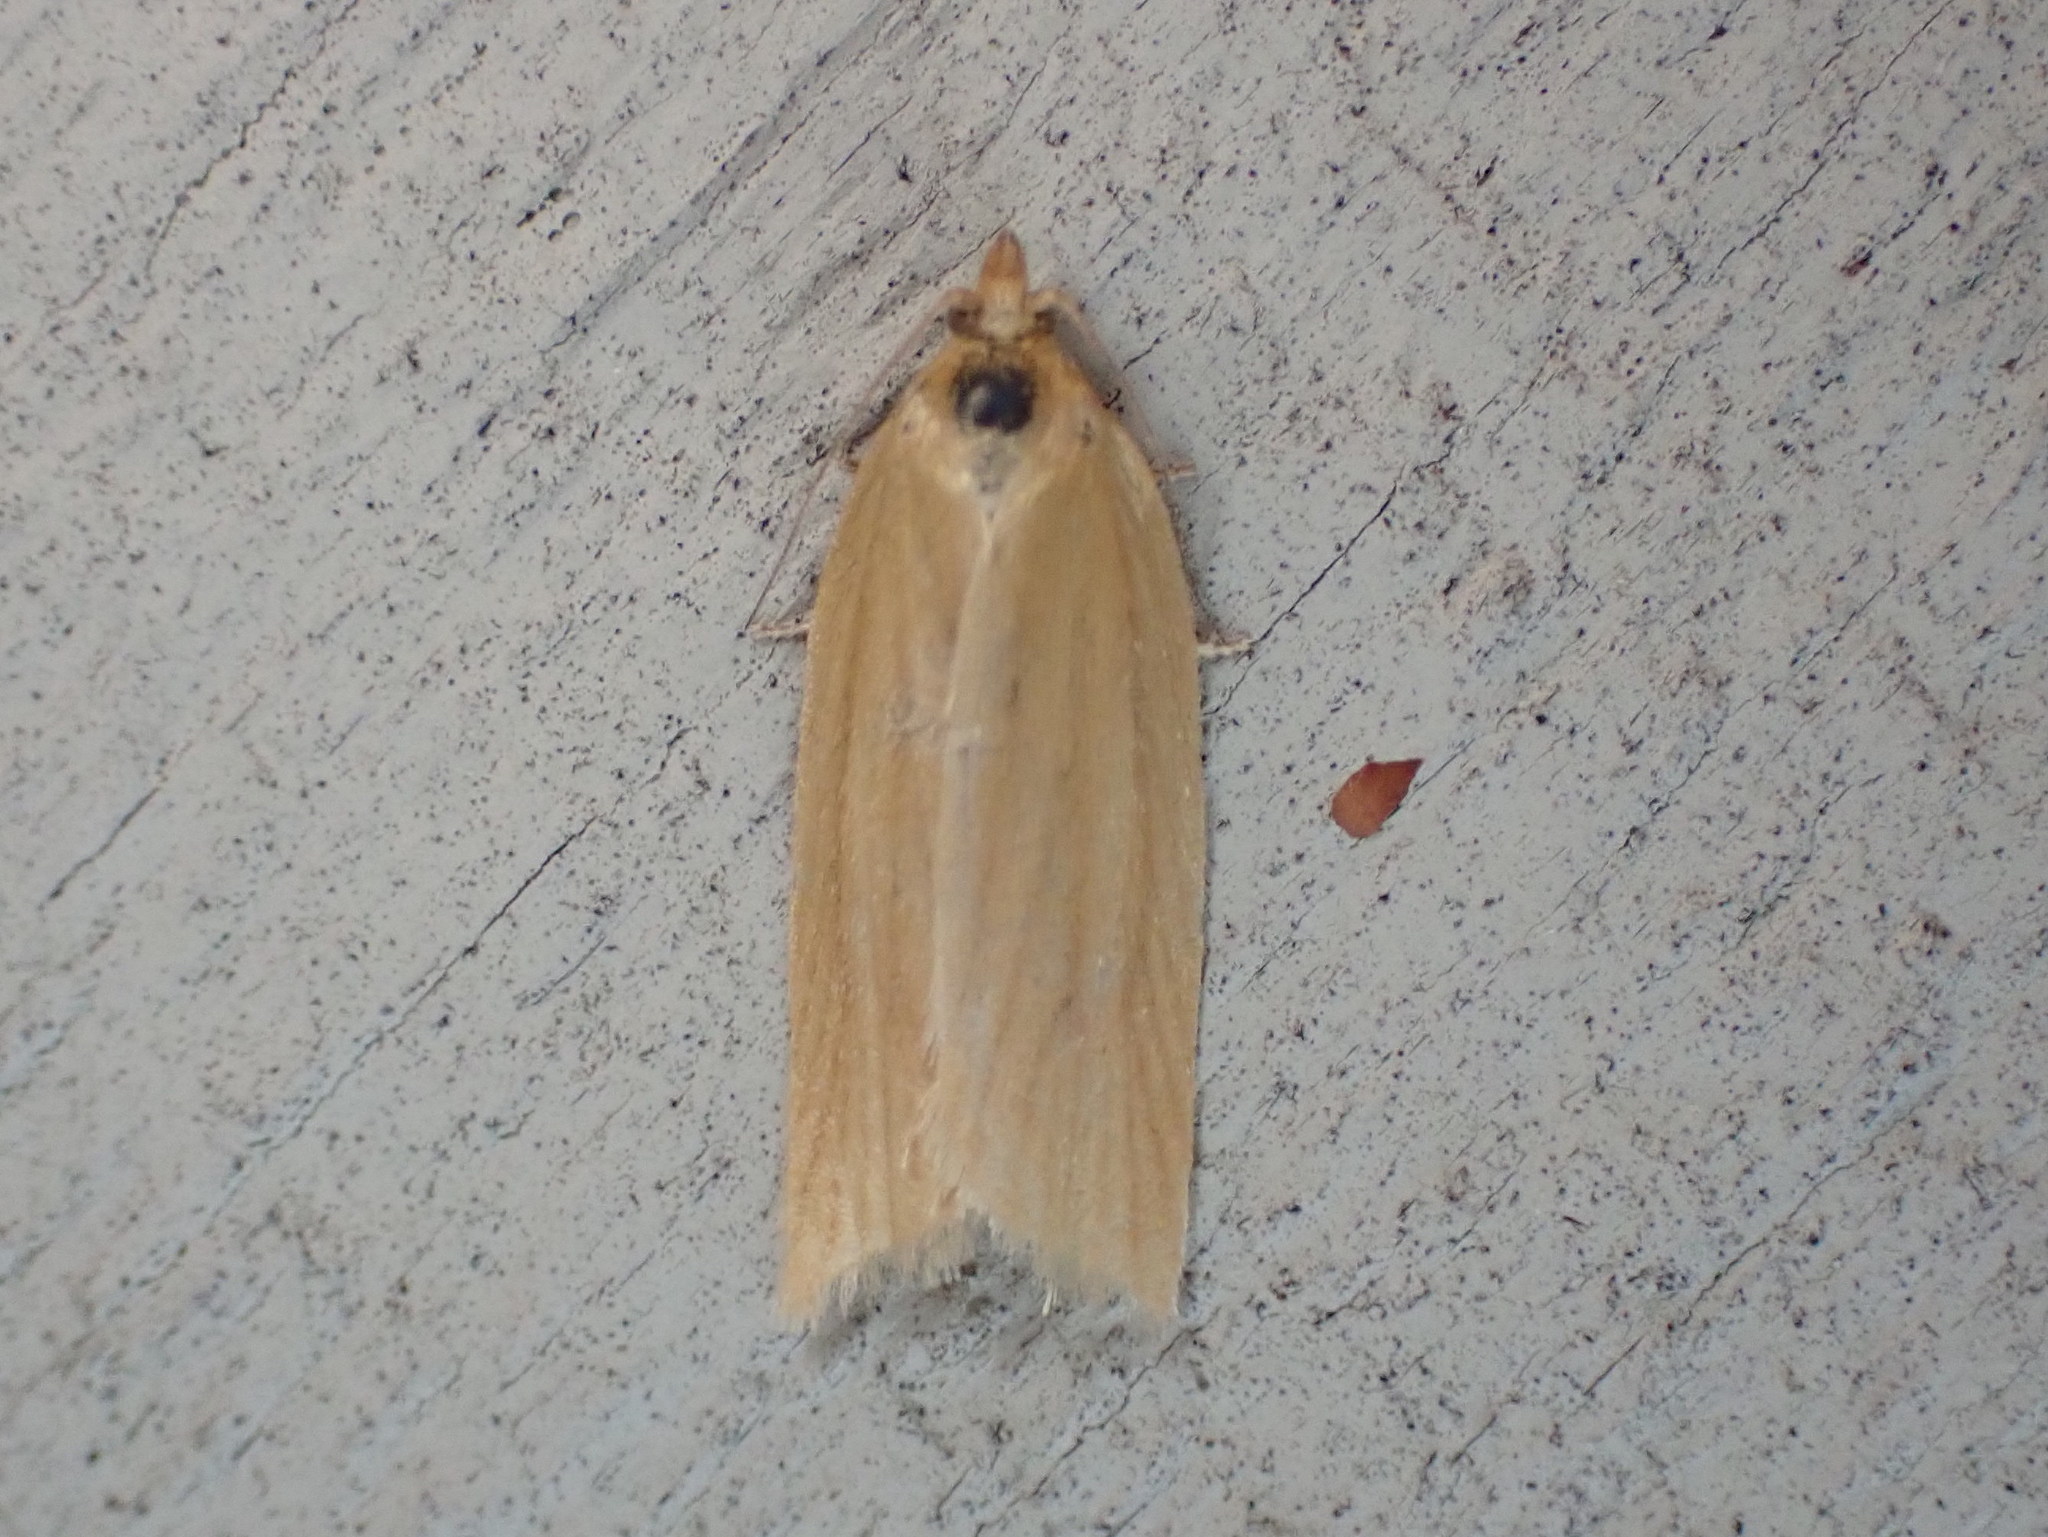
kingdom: Animalia
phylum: Arthropoda
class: Insecta
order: Lepidoptera
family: Tortricidae
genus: Clepsis
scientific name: Clepsis clemensiana
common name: Clemens' clepsis moth
